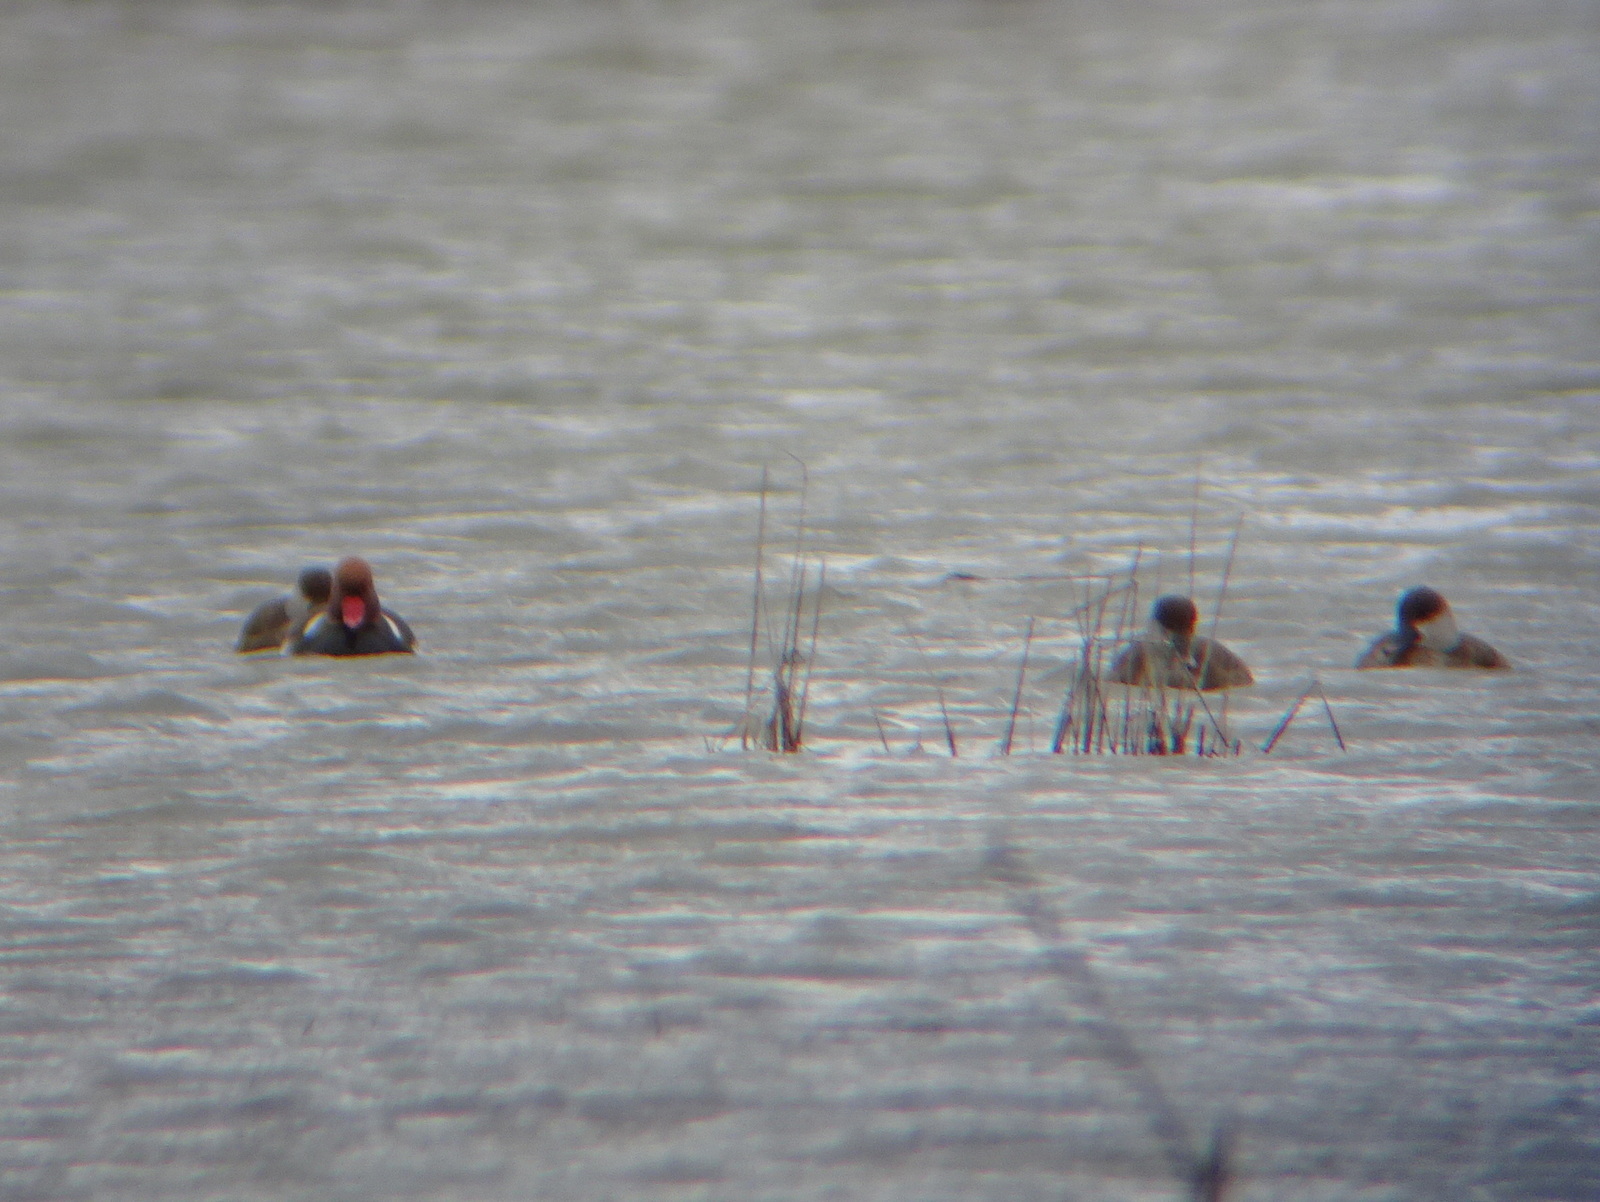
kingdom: Animalia
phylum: Chordata
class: Aves
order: Anseriformes
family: Anatidae
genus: Netta
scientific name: Netta rufina
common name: Red-crested pochard
